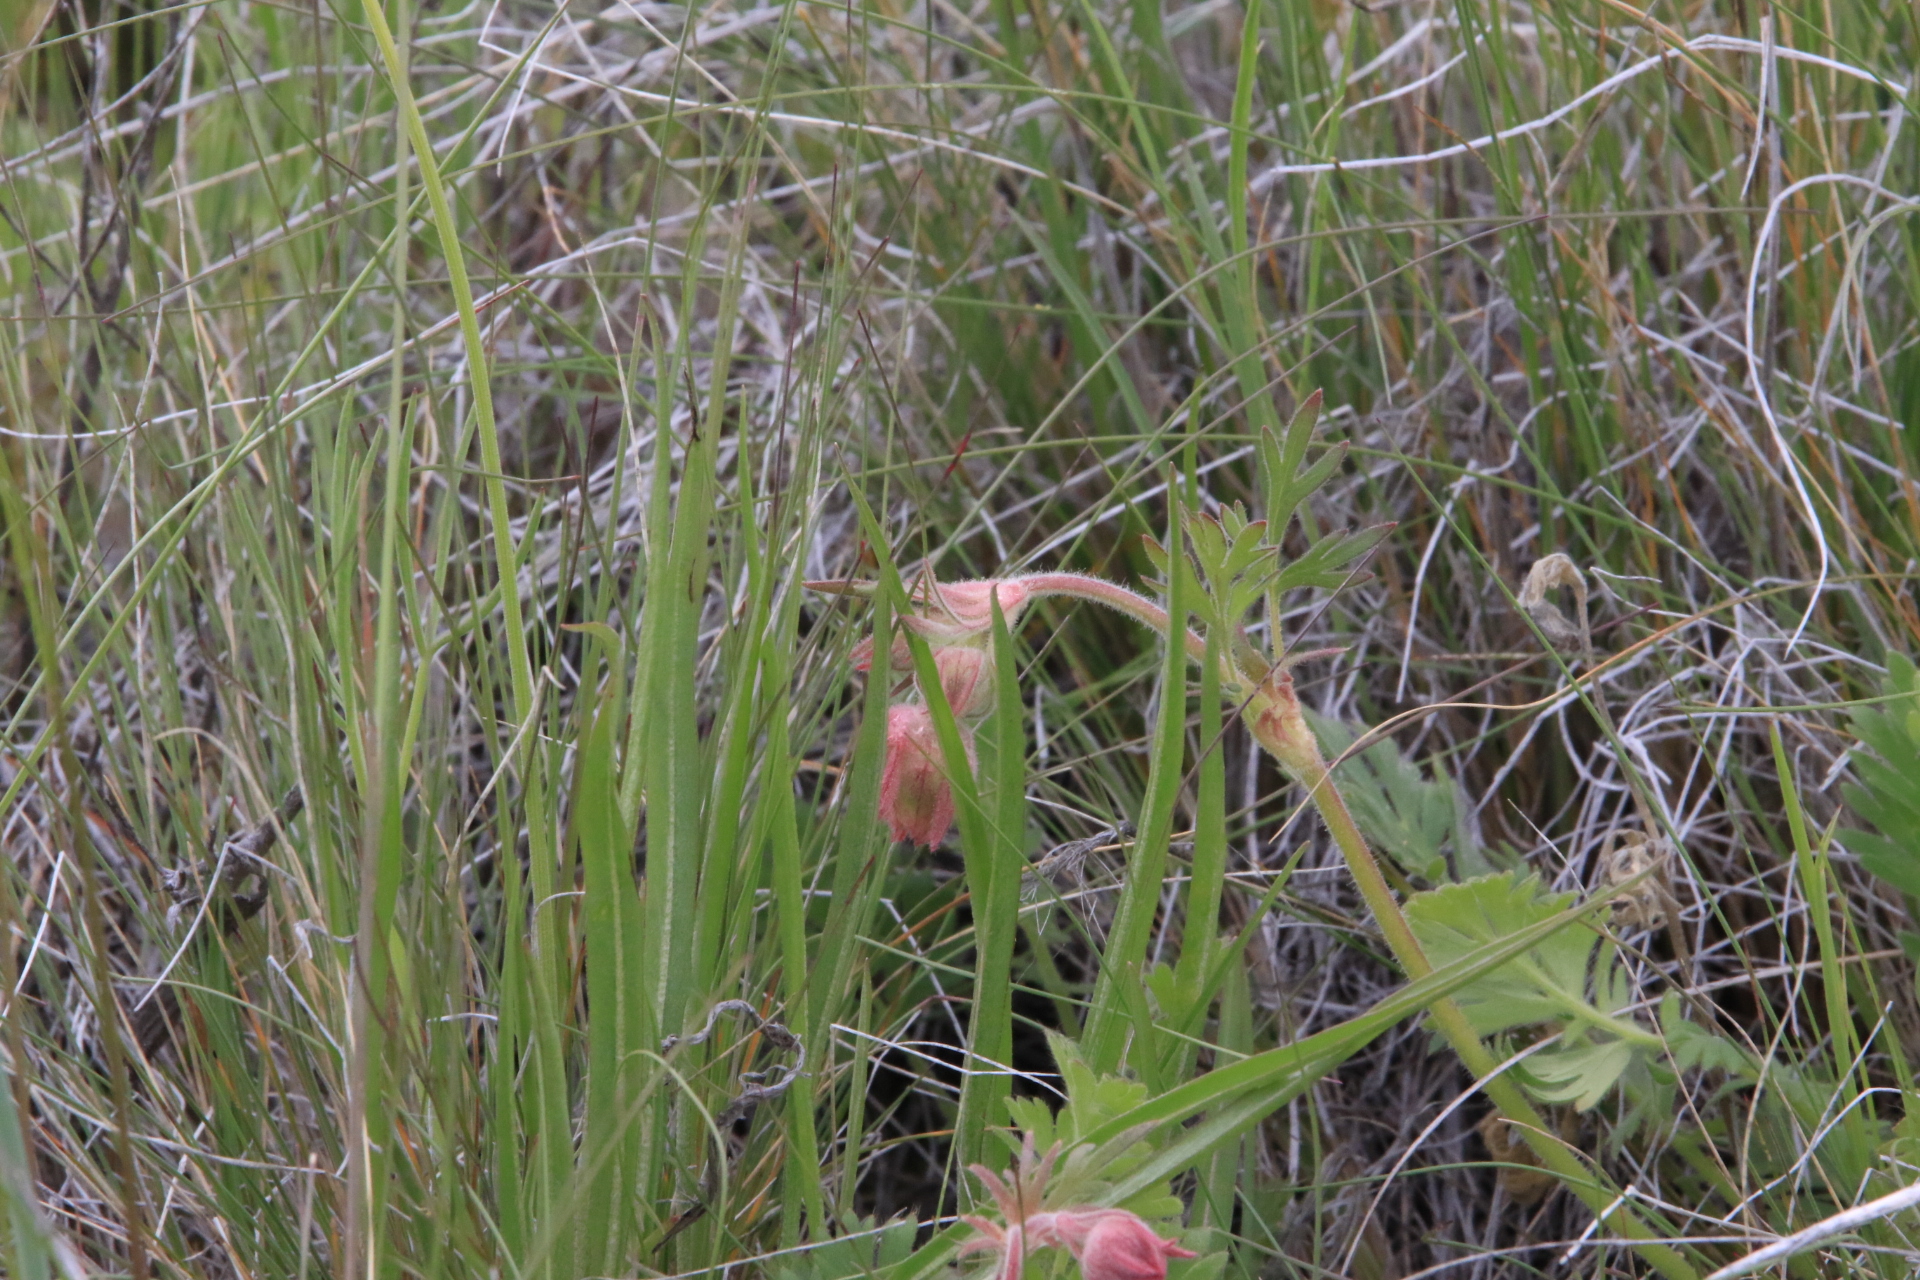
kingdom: Plantae
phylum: Tracheophyta
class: Magnoliopsida
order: Rosales
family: Rosaceae
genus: Geum
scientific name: Geum triflorum
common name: Old man's whiskers
